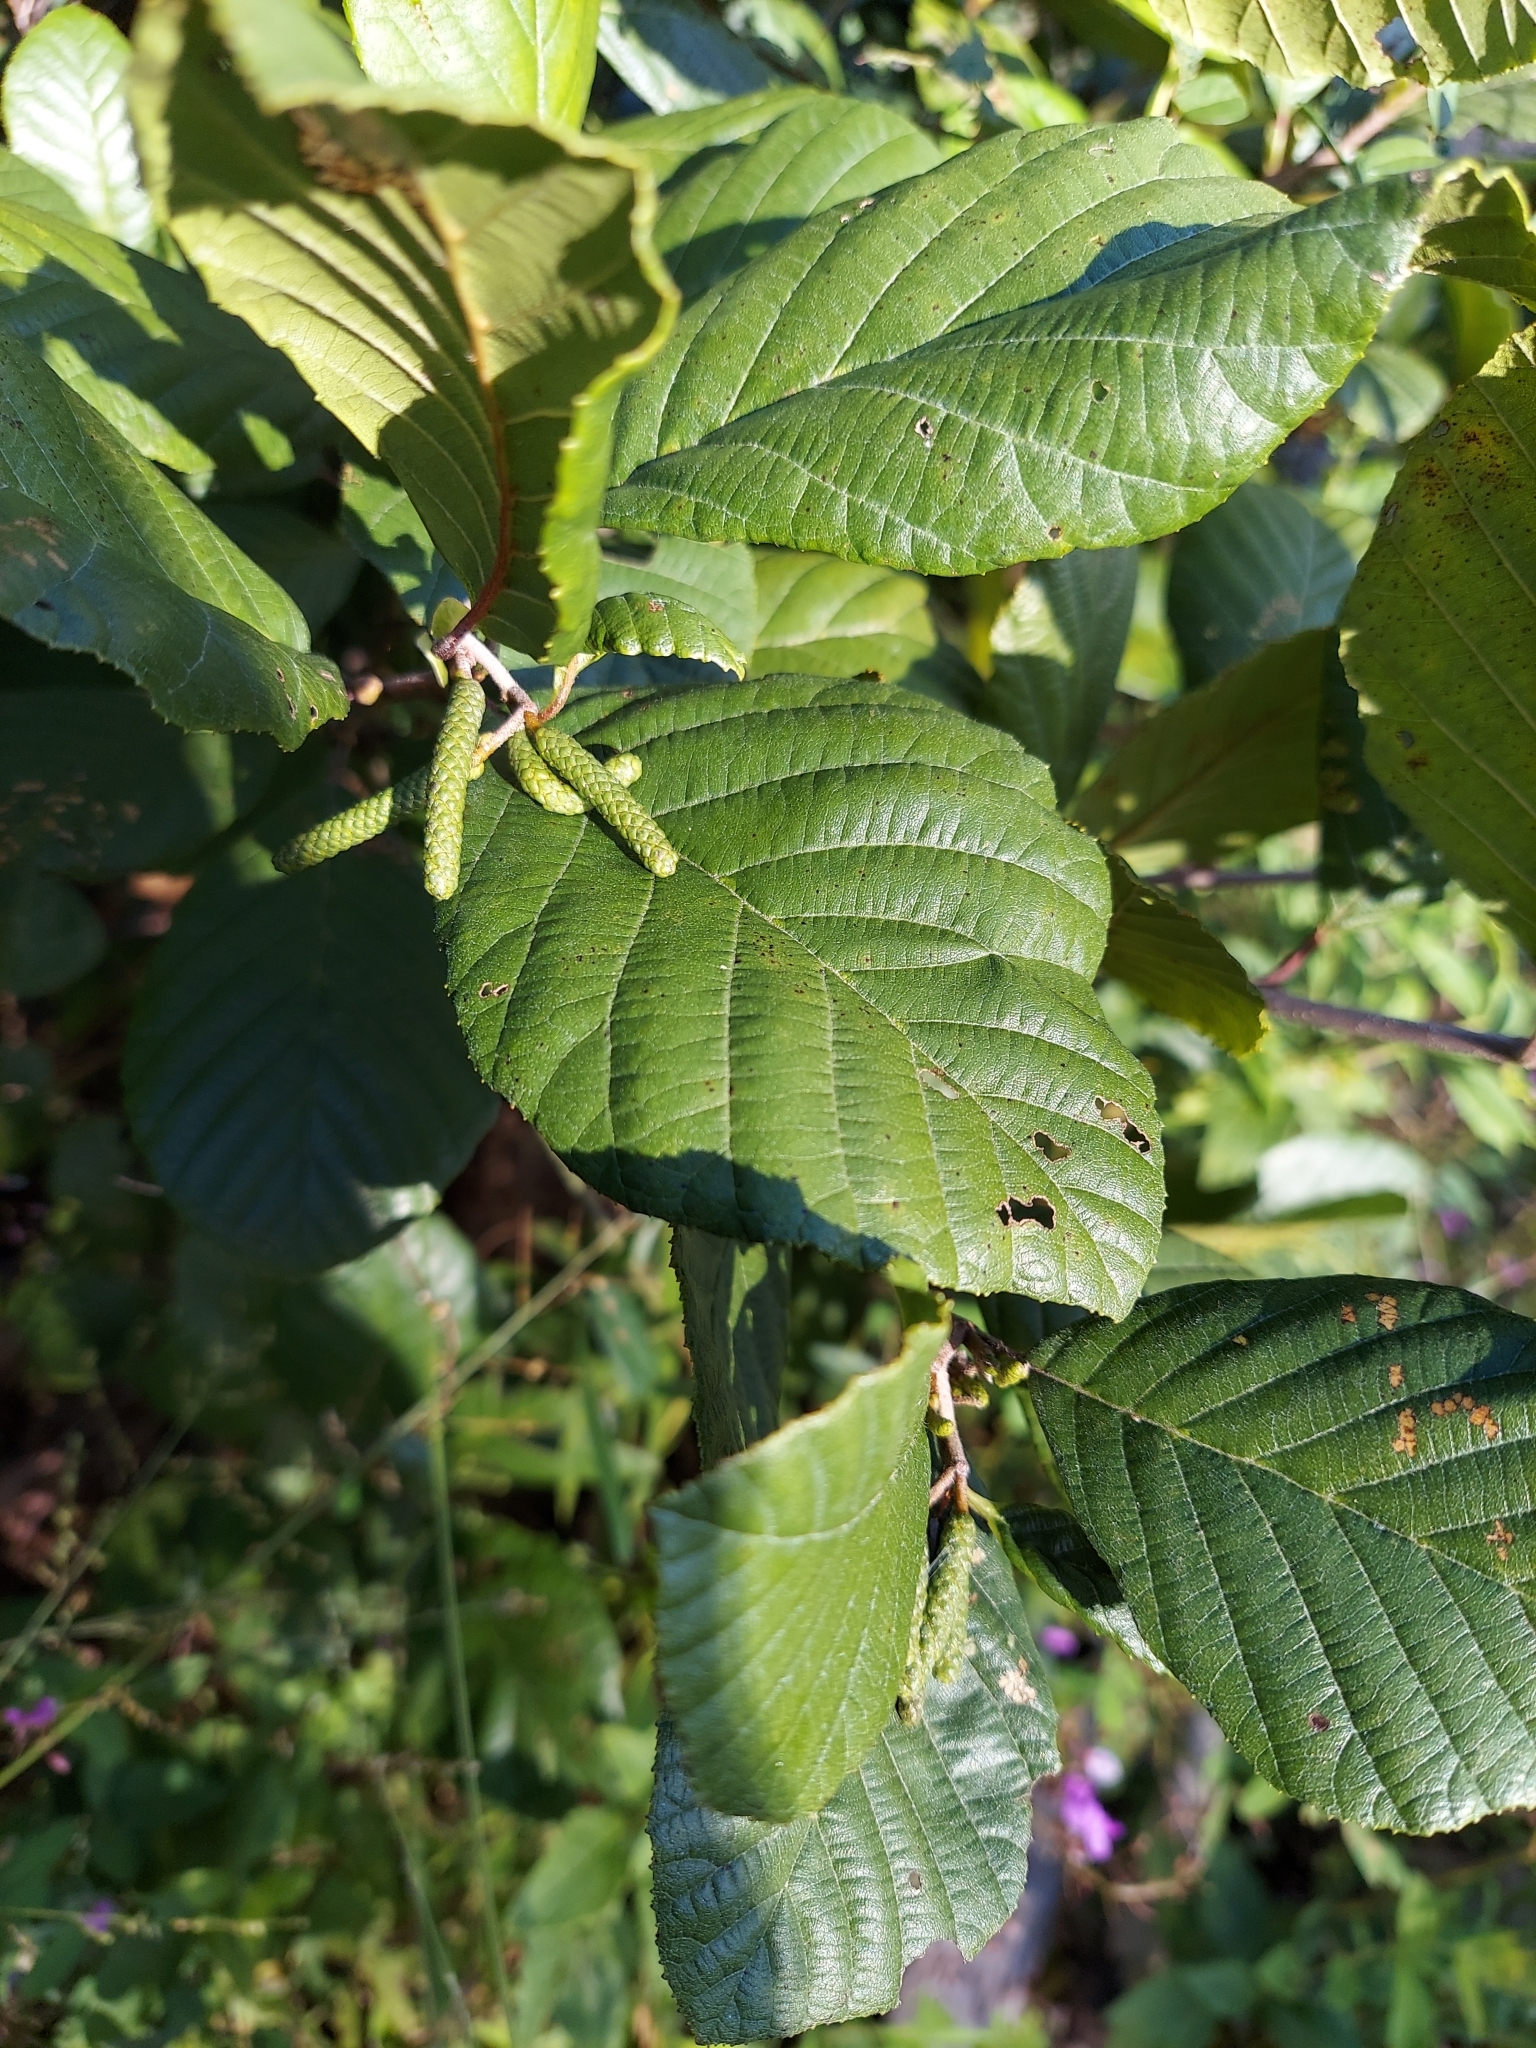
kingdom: Plantae
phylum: Tracheophyta
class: Magnoliopsida
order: Fagales
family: Betulaceae
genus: Alnus
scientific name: Alnus serrulata
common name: Hazel alder
